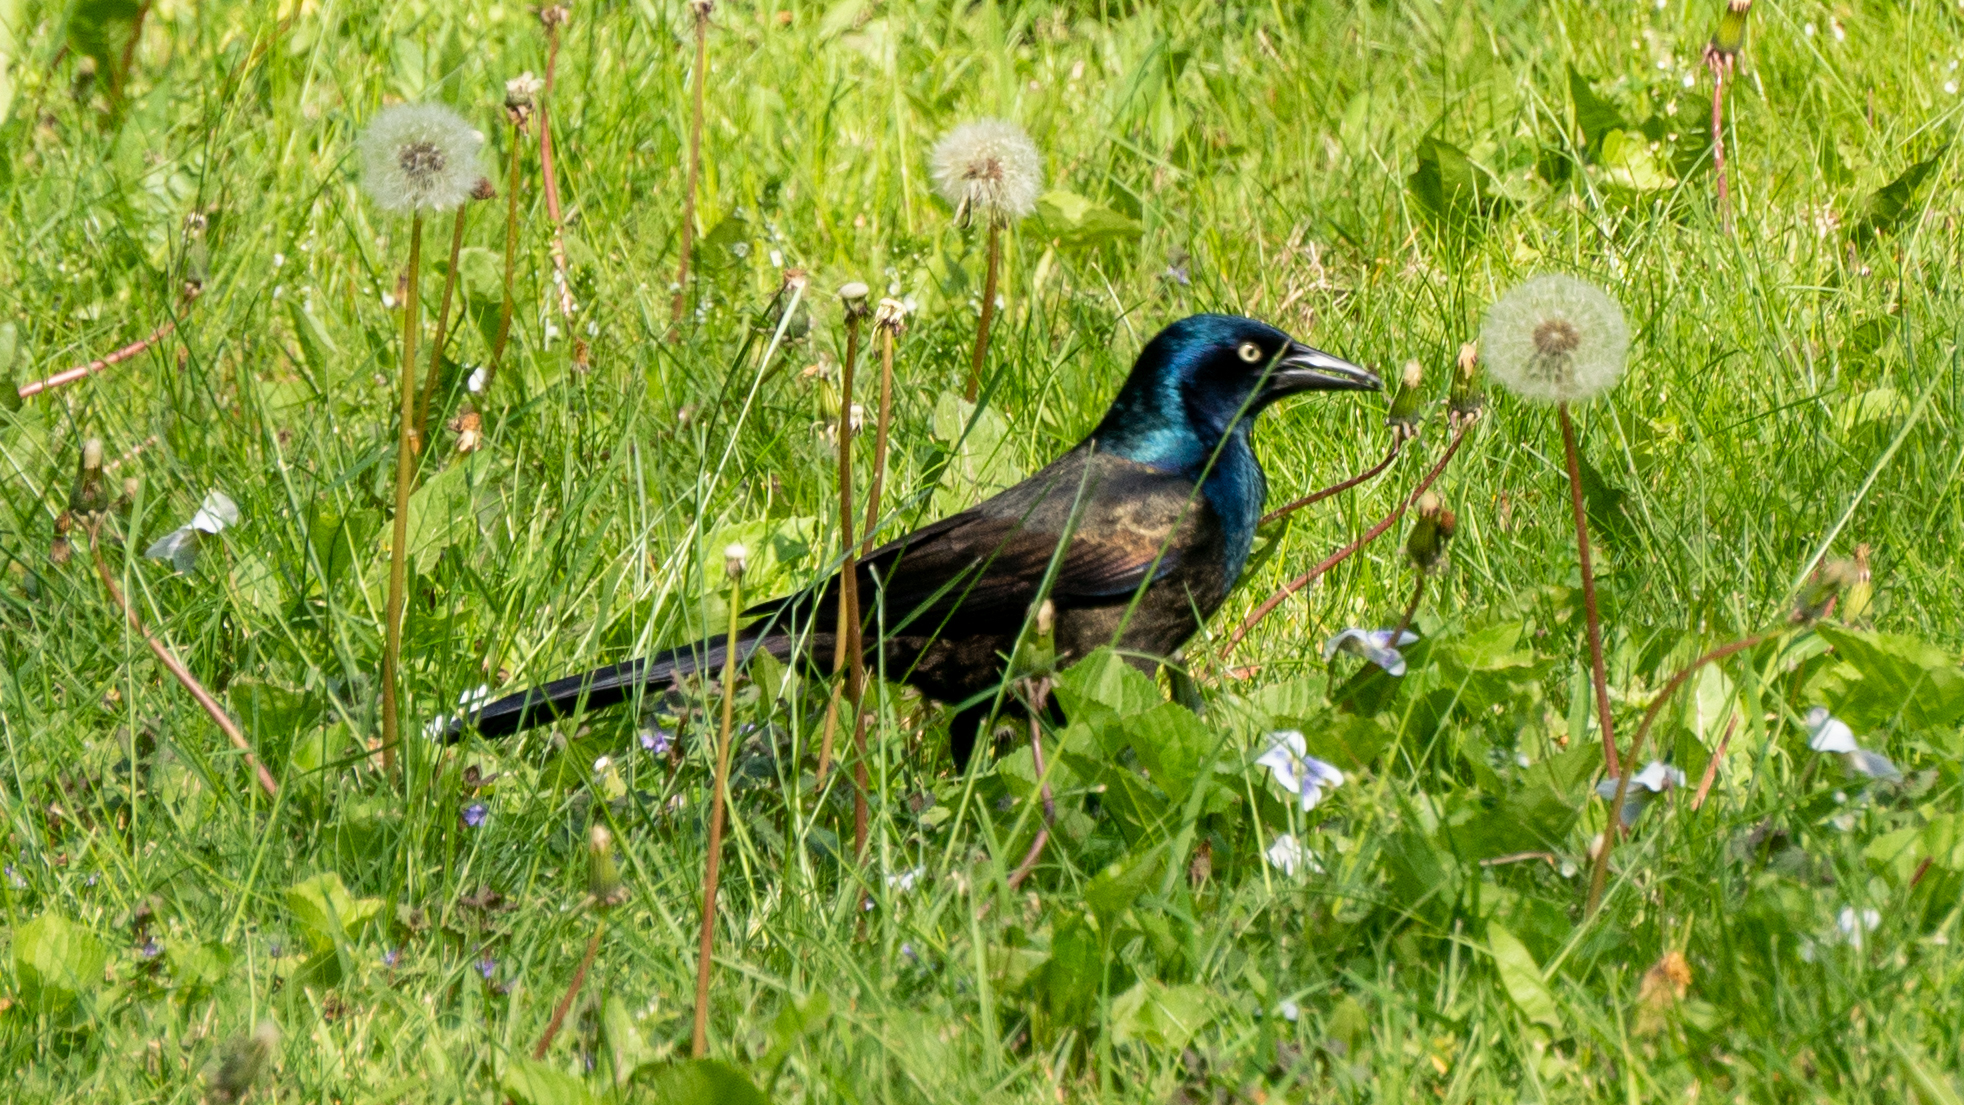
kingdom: Animalia
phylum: Chordata
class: Aves
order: Passeriformes
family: Icteridae
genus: Quiscalus
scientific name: Quiscalus quiscula
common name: Common grackle
